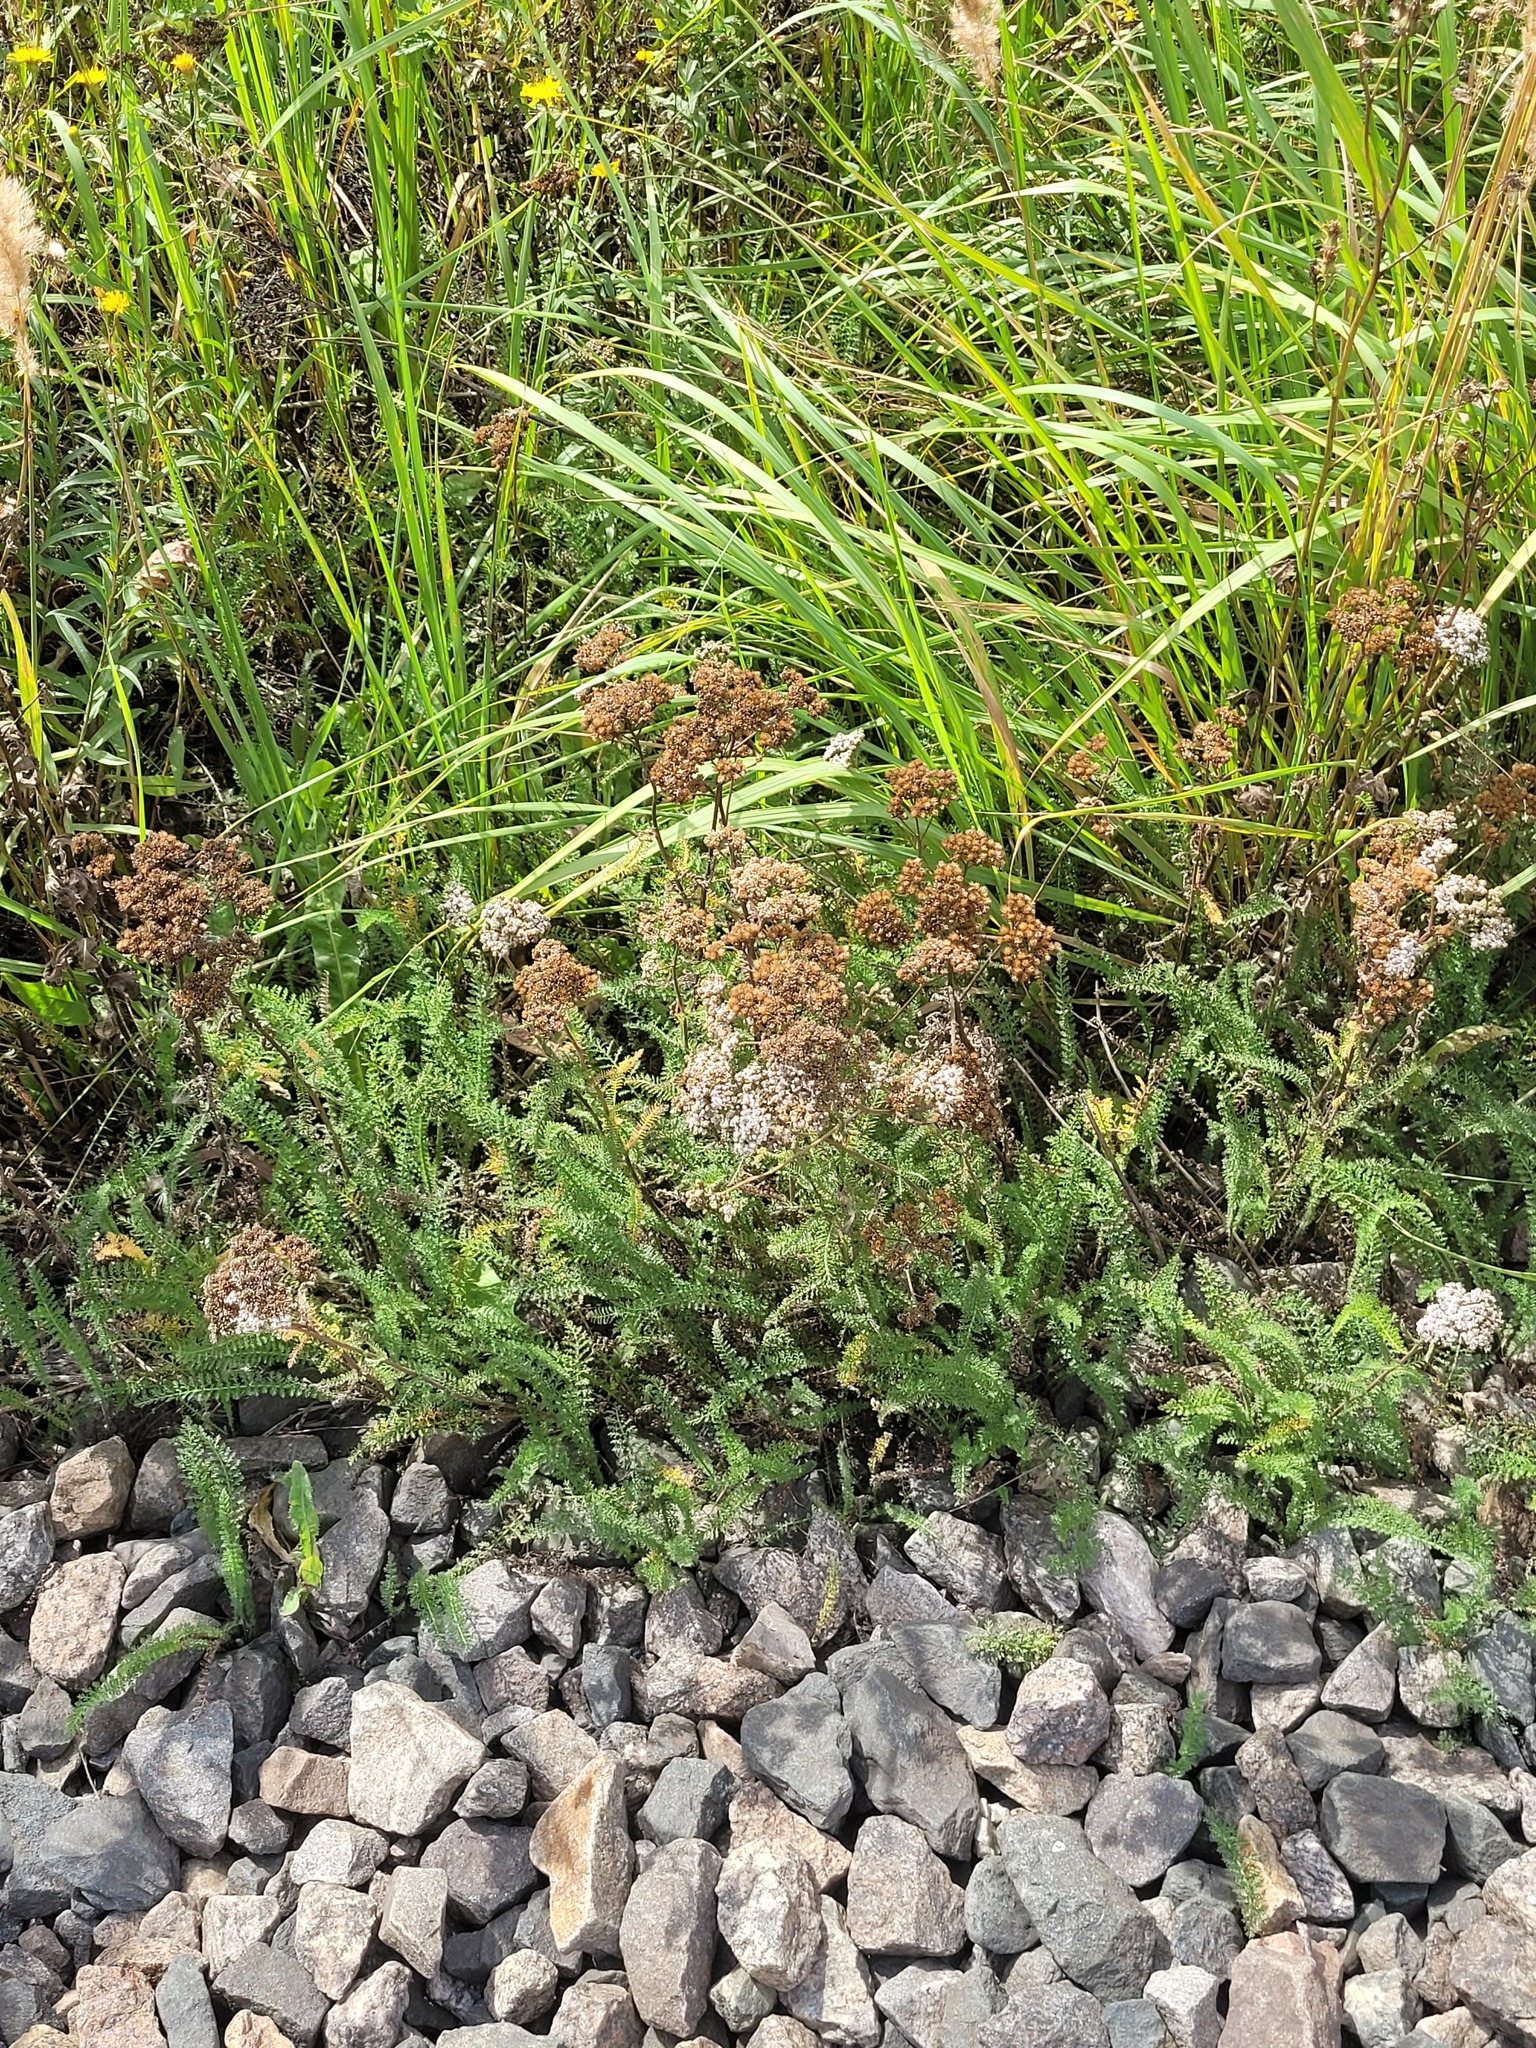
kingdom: Plantae
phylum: Tracheophyta
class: Magnoliopsida
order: Asterales
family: Asteraceae
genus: Achillea
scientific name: Achillea millefolium
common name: Yarrow
